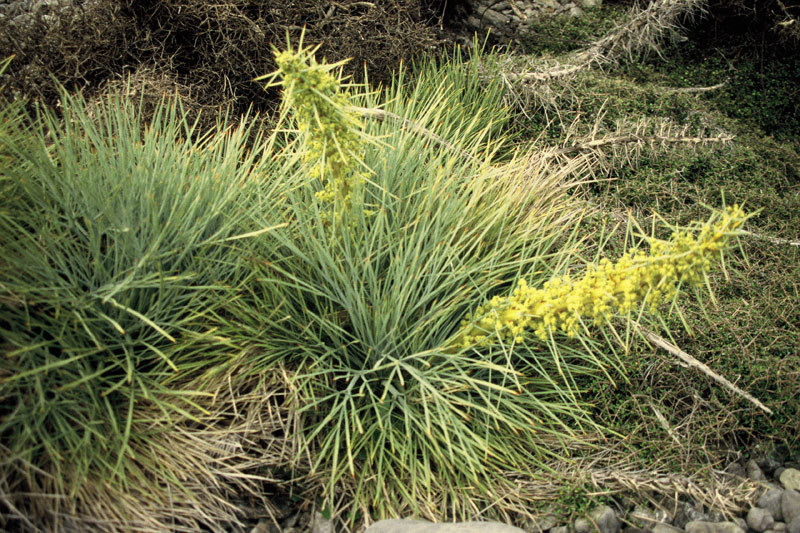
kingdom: Plantae
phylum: Tracheophyta
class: Magnoliopsida
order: Apiales
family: Apiaceae
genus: Aciphylla
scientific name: Aciphylla squarrosa
